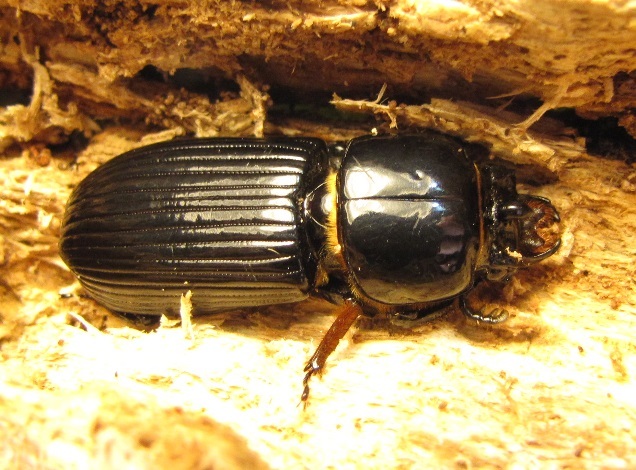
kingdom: Animalia
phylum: Arthropoda
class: Insecta
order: Coleoptera
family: Passalidae
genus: Odontotaenius
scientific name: Odontotaenius disjunctus
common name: Patent leather beetle
